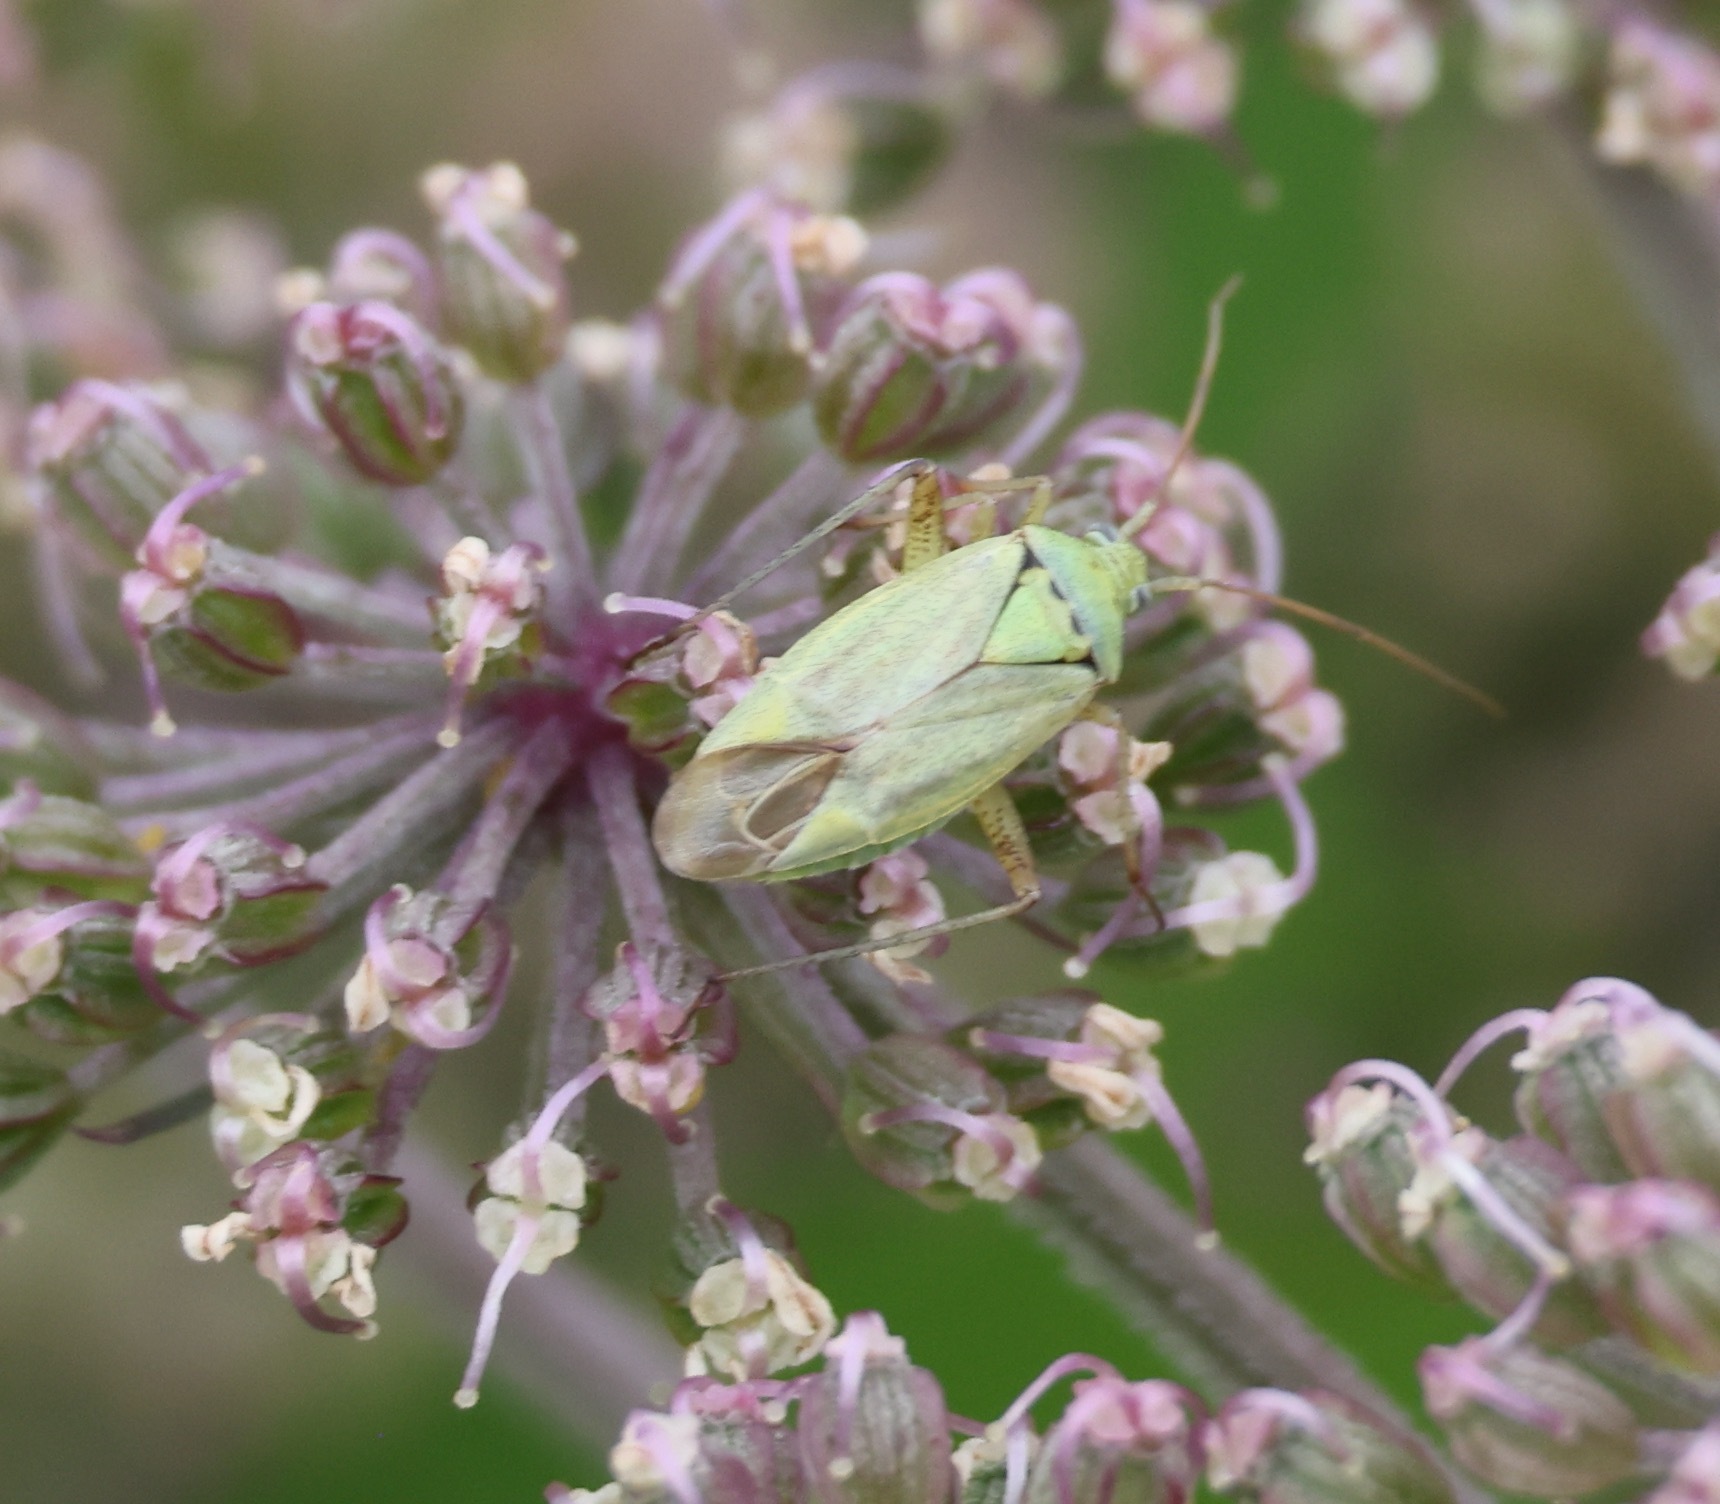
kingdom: Animalia
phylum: Arthropoda
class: Insecta
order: Hemiptera
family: Miridae
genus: Closterotomus
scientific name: Closterotomus norvegicus
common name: Plant bug
